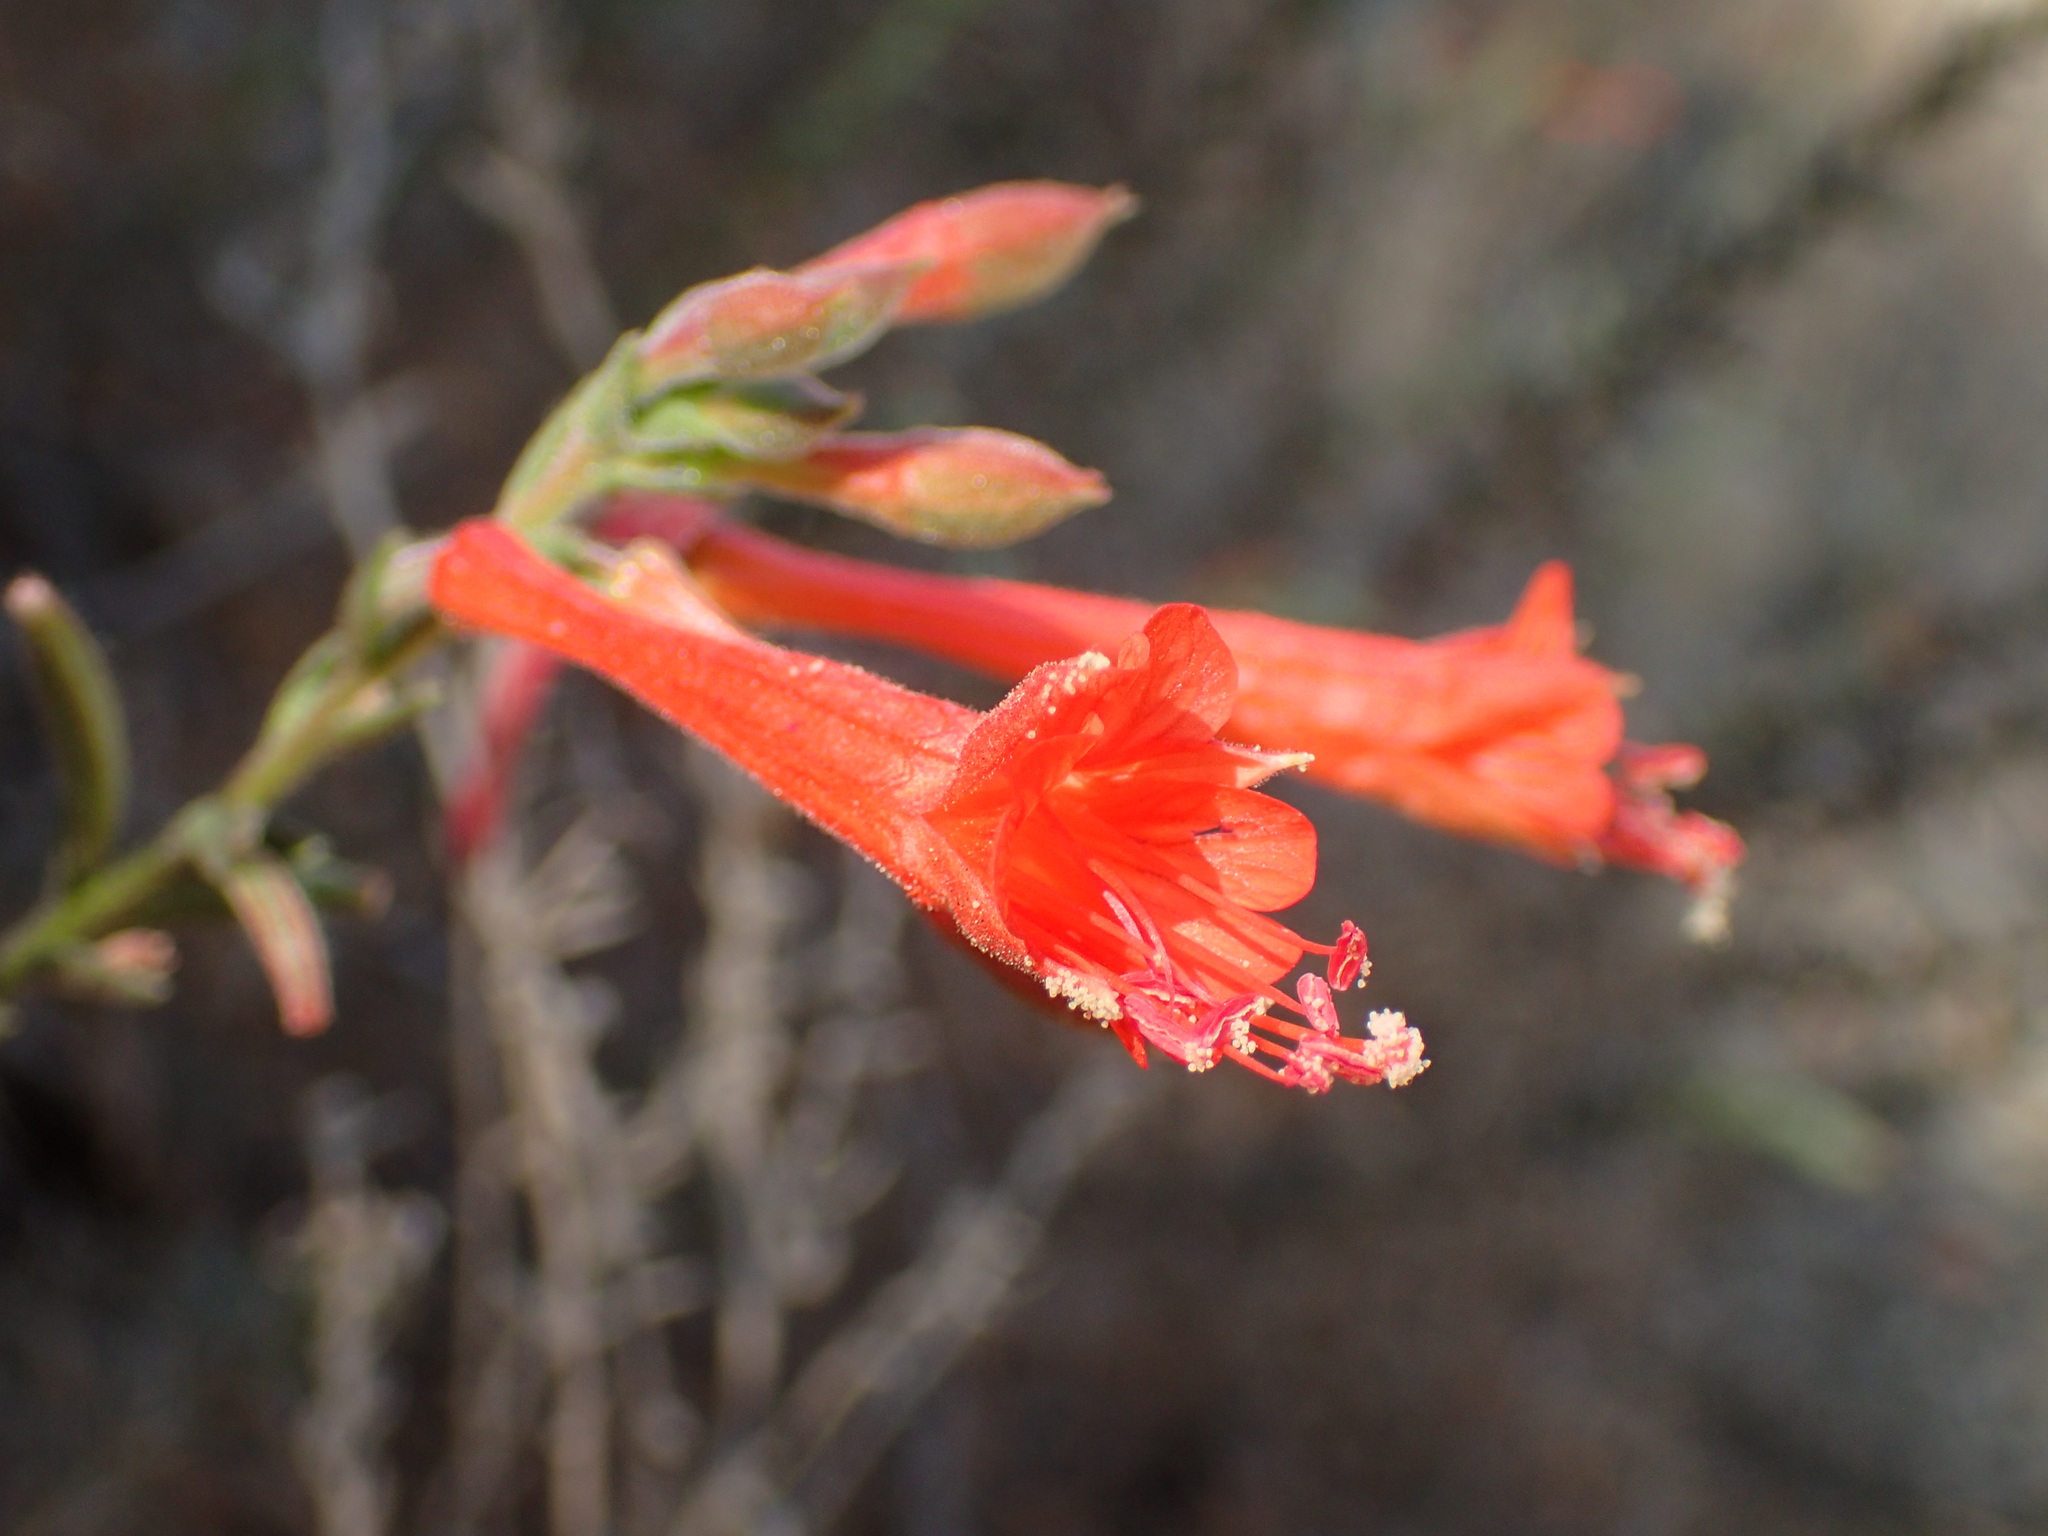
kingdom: Plantae
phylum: Tracheophyta
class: Magnoliopsida
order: Myrtales
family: Onagraceae
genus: Epilobium
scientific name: Epilobium canum
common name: California-fuchsia
